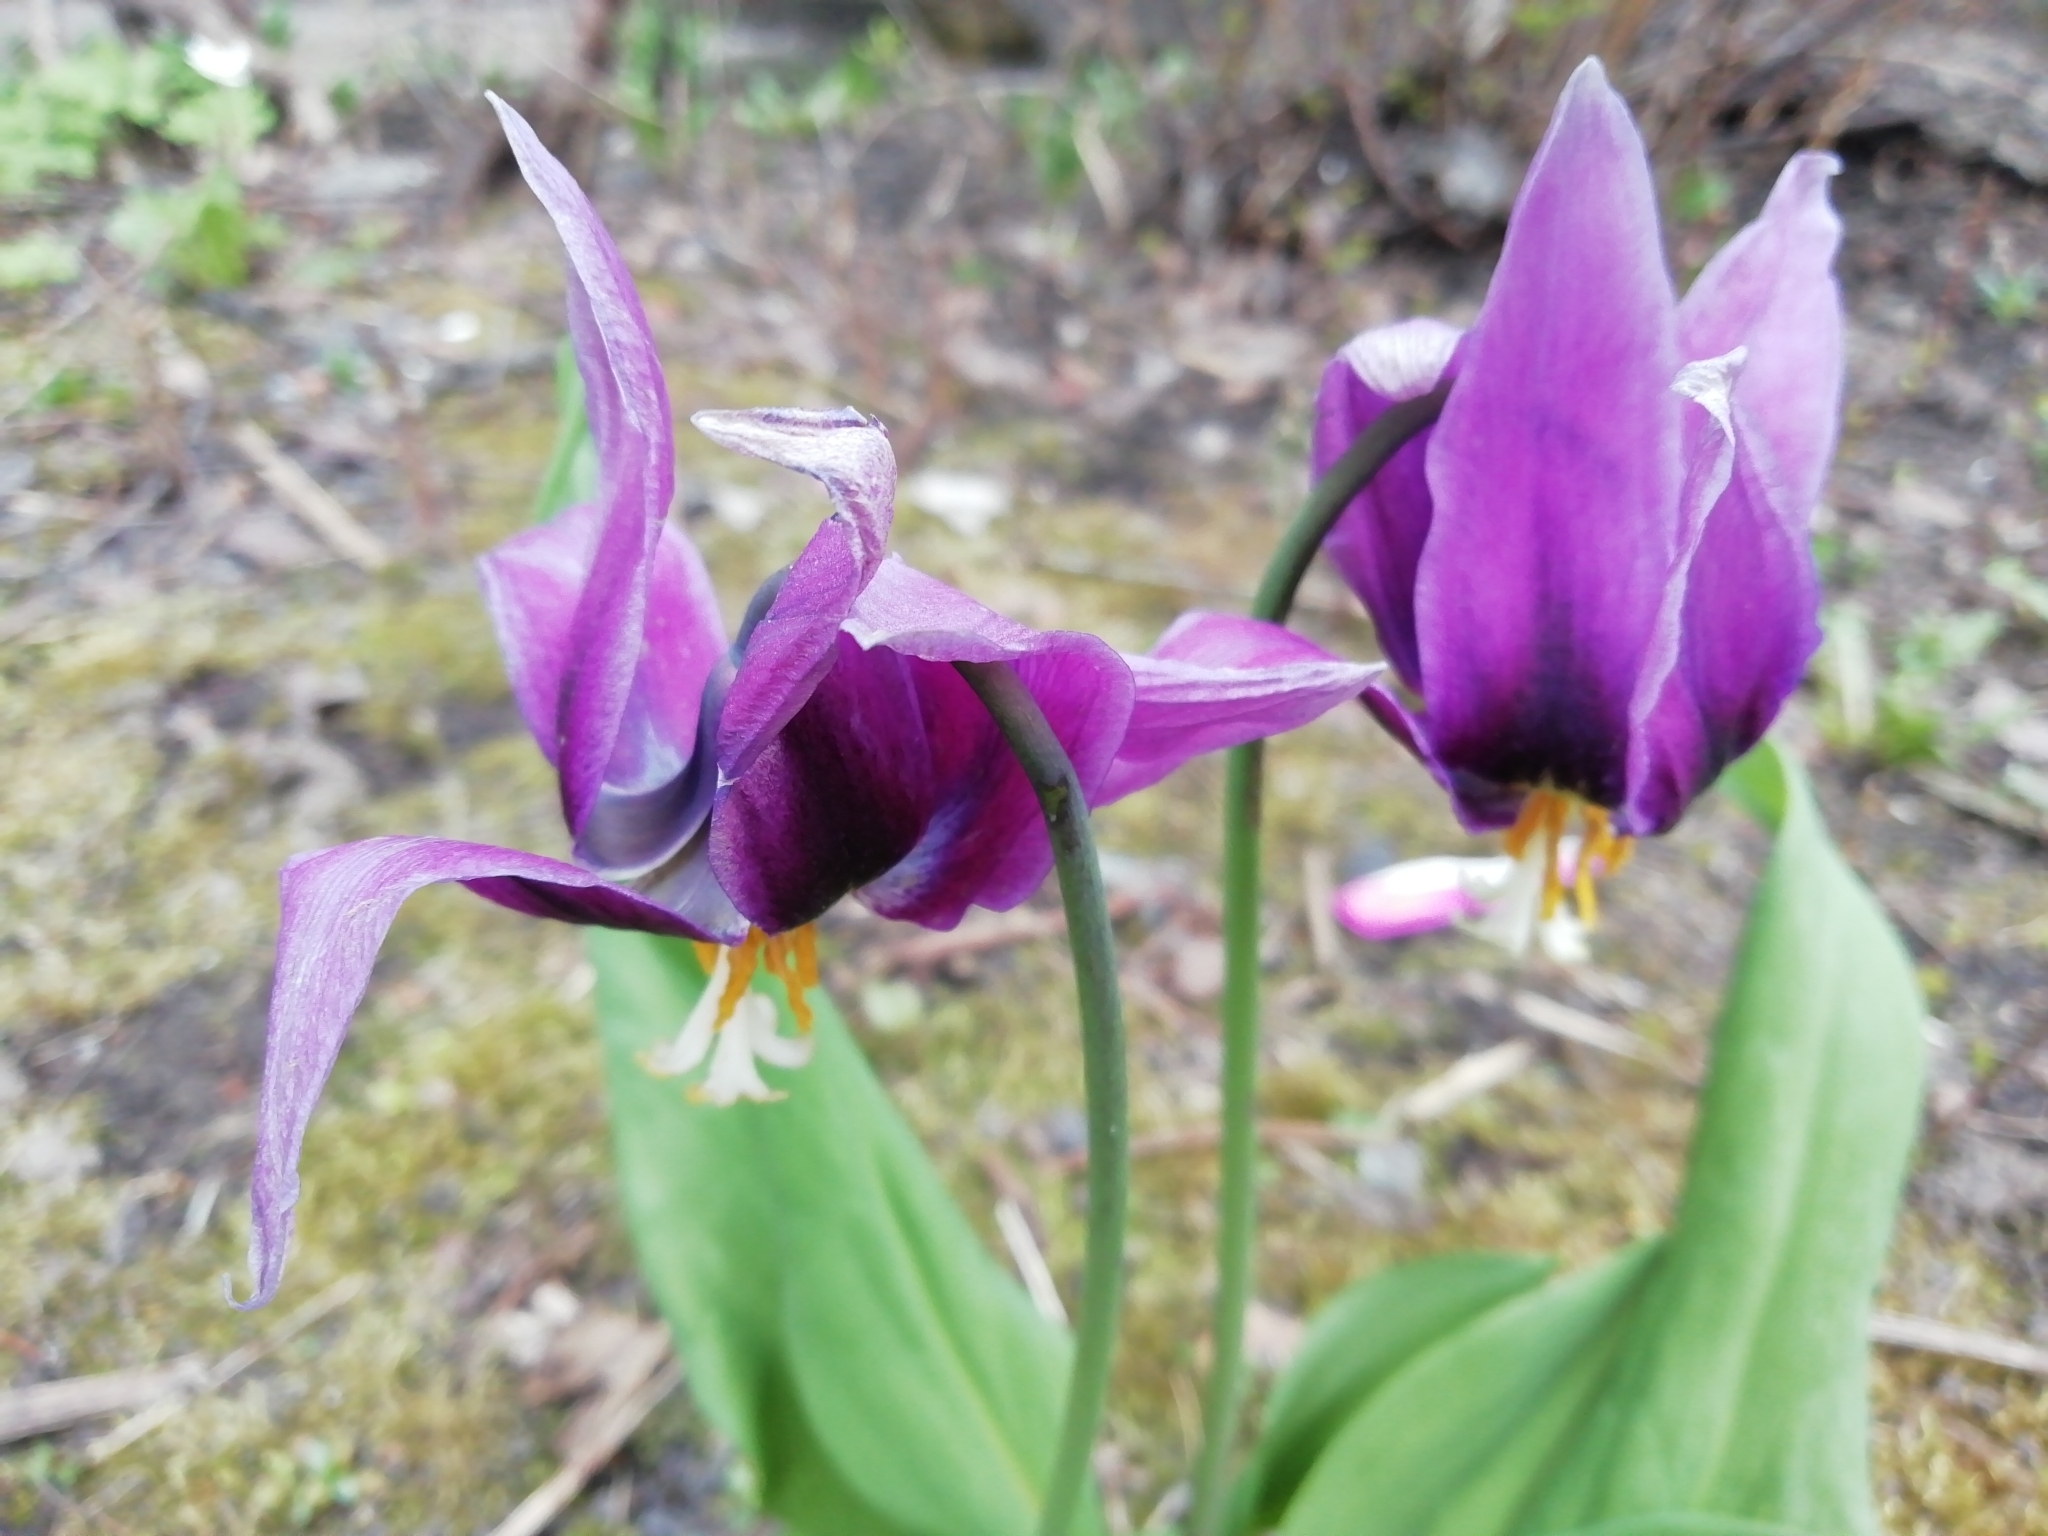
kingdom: Plantae
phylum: Tracheophyta
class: Liliopsida
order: Liliales
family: Liliaceae
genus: Erythronium
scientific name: Erythronium sibiricum
